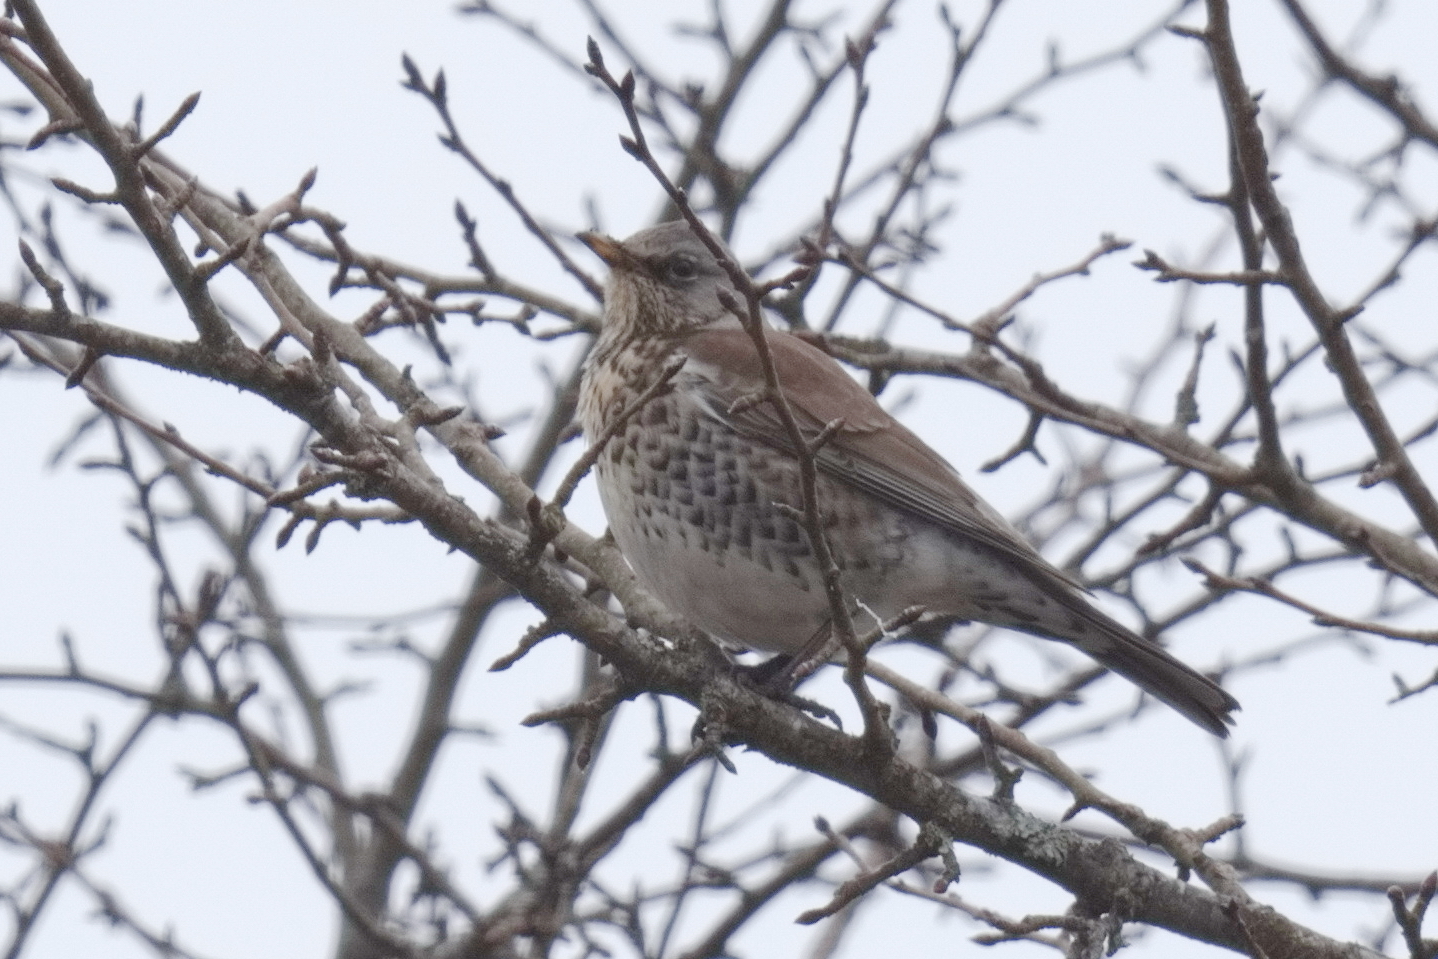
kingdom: Animalia
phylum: Chordata
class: Aves
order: Passeriformes
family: Turdidae
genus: Turdus
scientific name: Turdus pilaris
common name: Fieldfare
